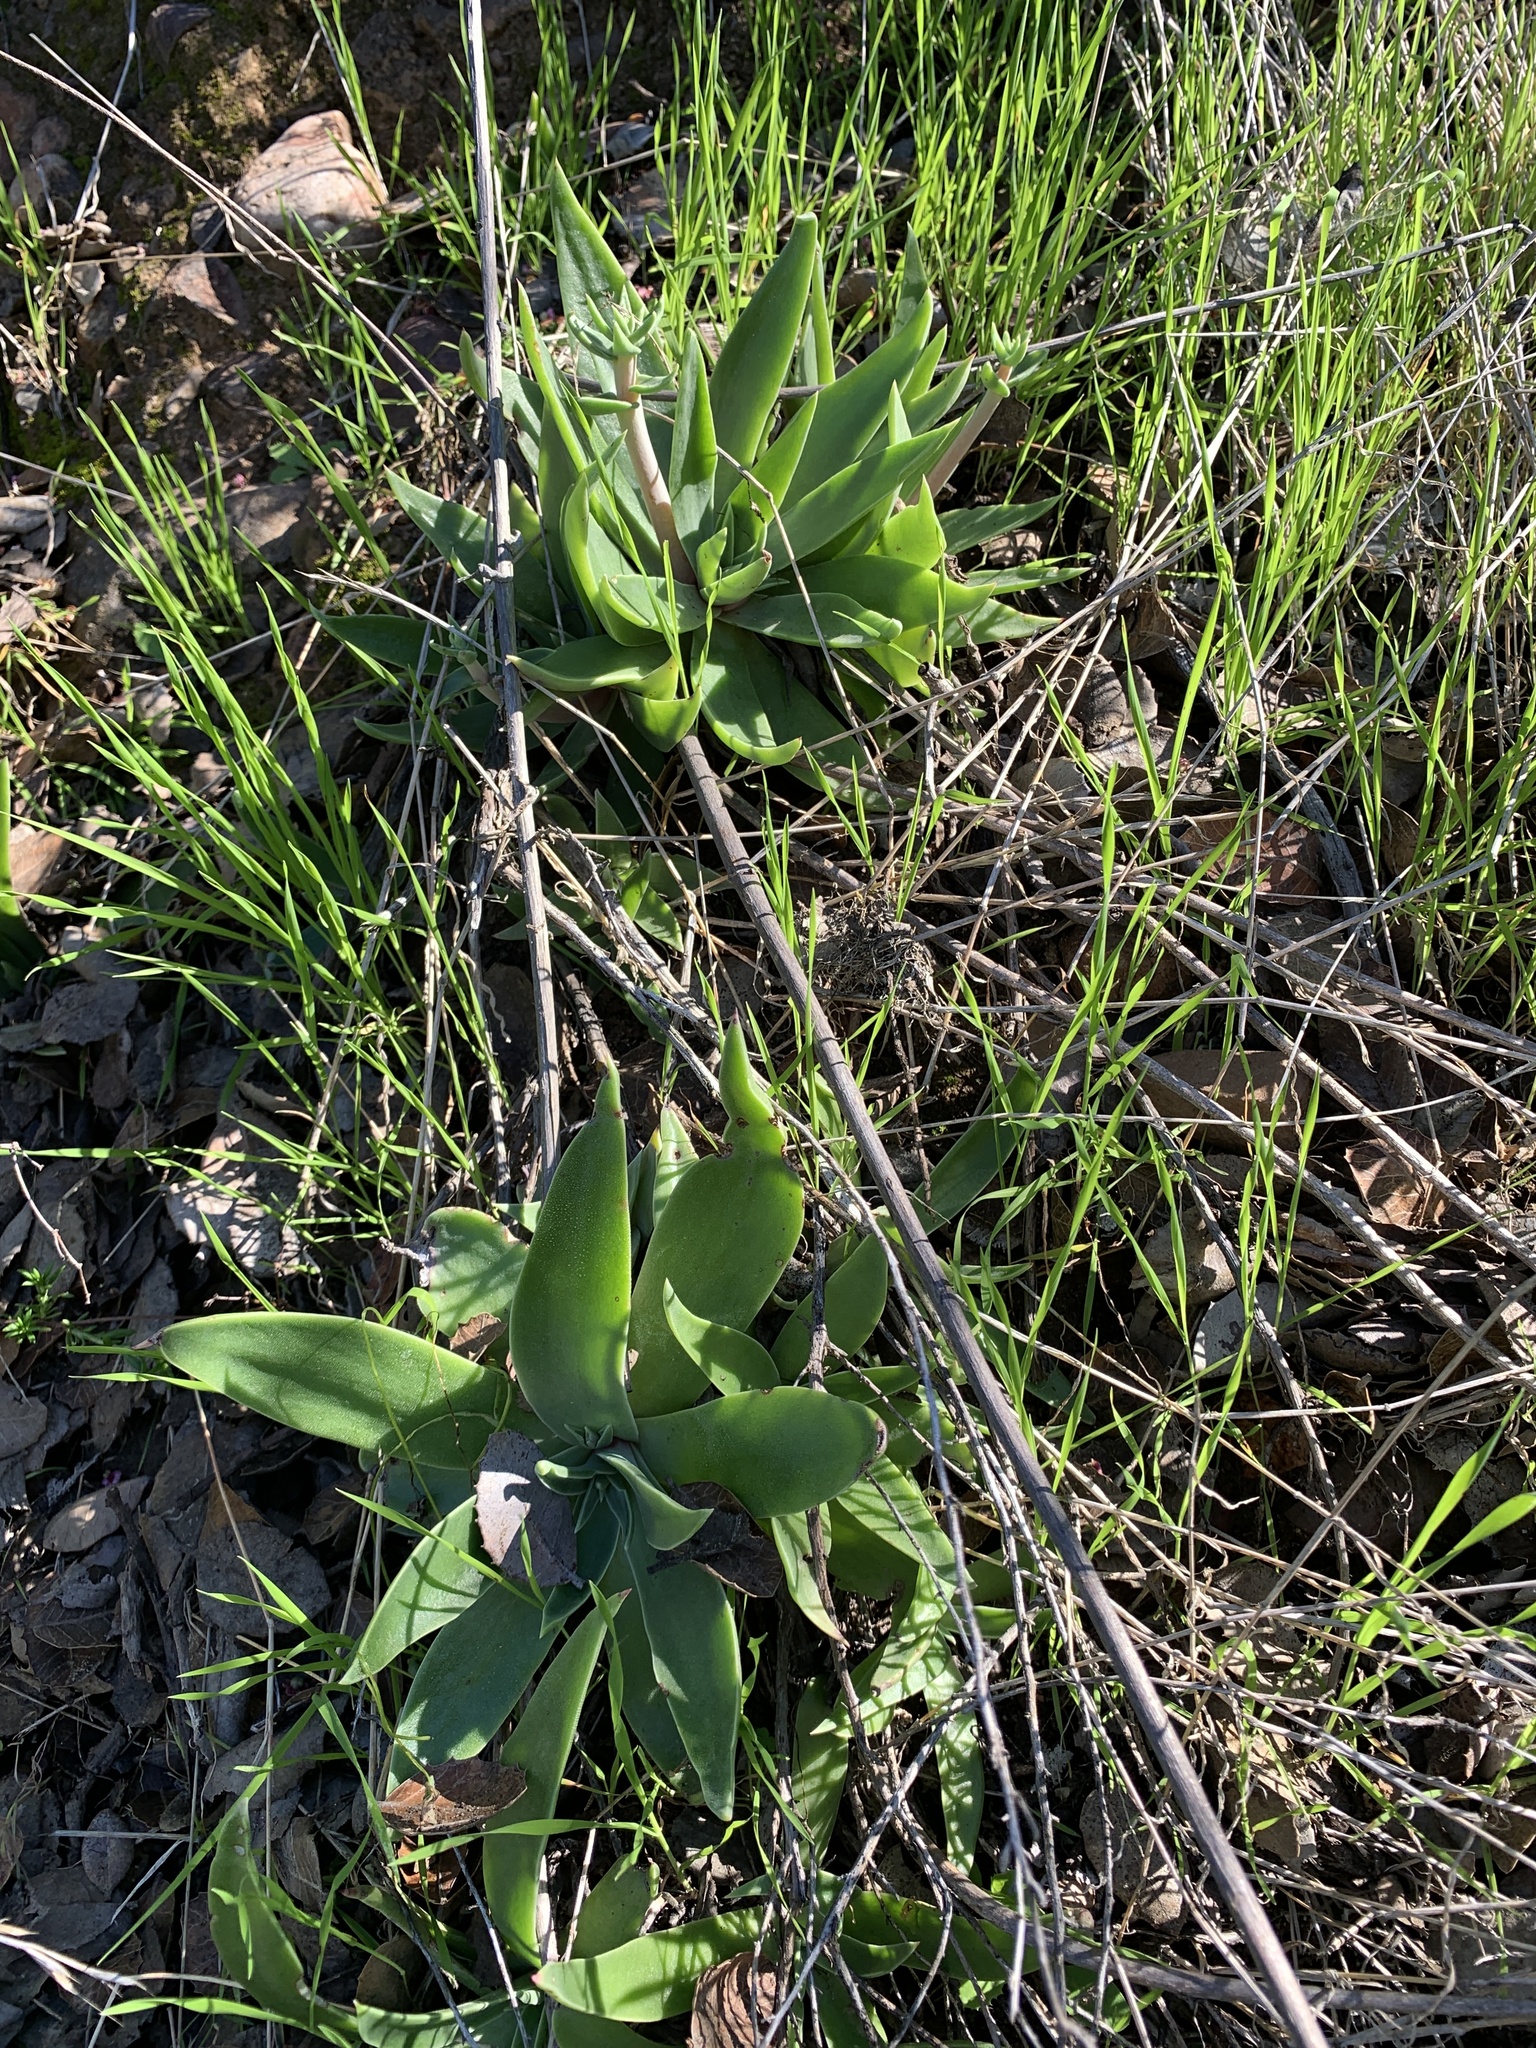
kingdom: Plantae
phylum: Tracheophyta
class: Magnoliopsida
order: Saxifragales
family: Crassulaceae
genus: Dudleya
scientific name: Dudleya lanceolata
